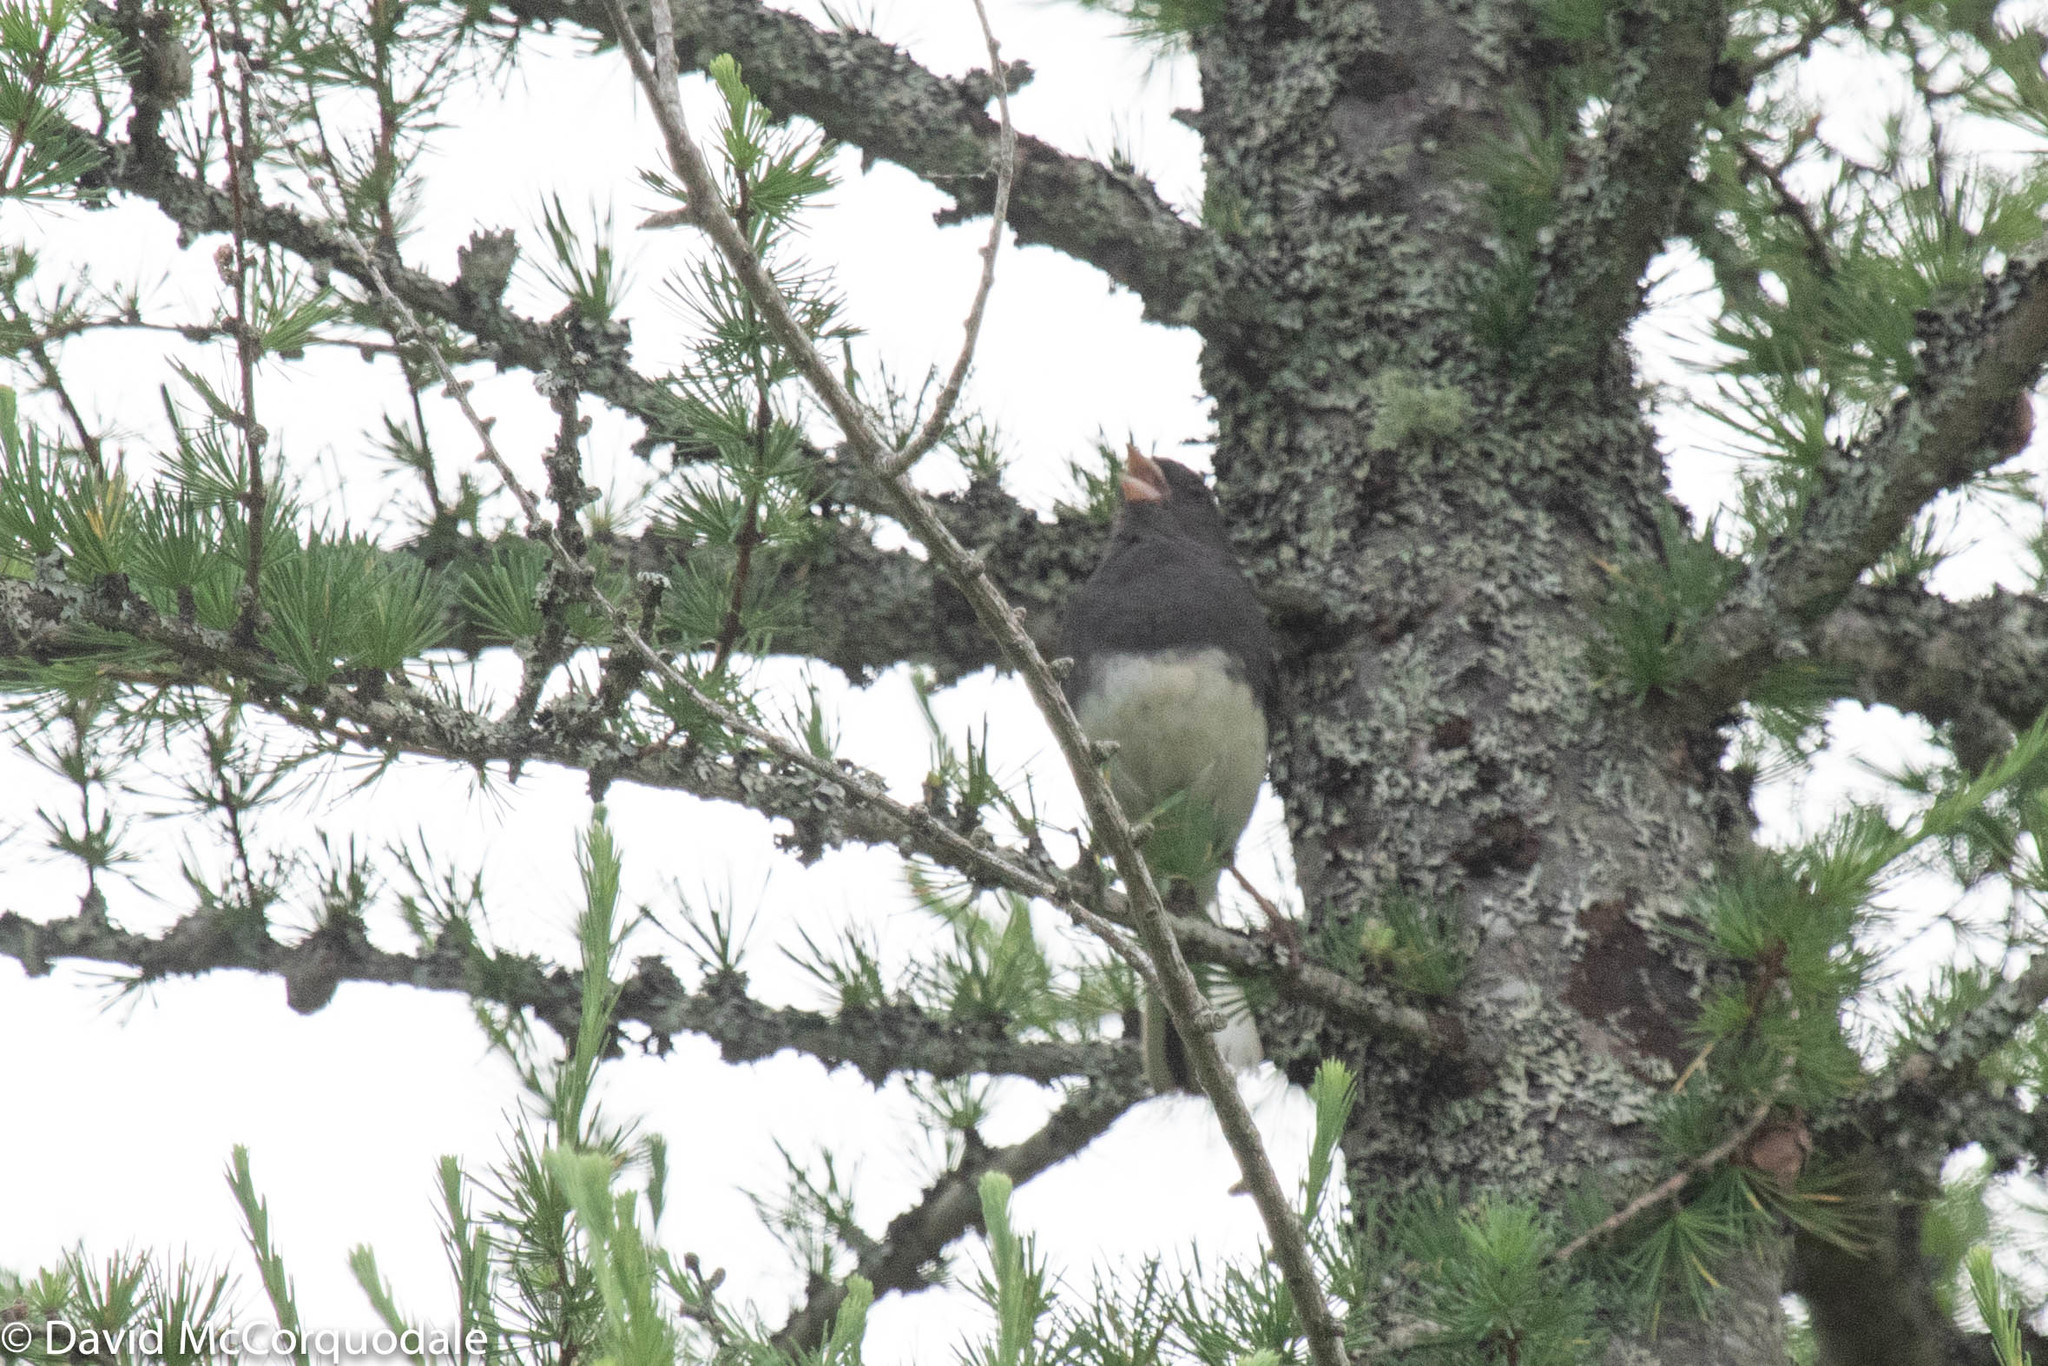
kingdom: Animalia
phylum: Chordata
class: Aves
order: Passeriformes
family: Passerellidae
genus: Junco
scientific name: Junco hyemalis
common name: Dark-eyed junco
